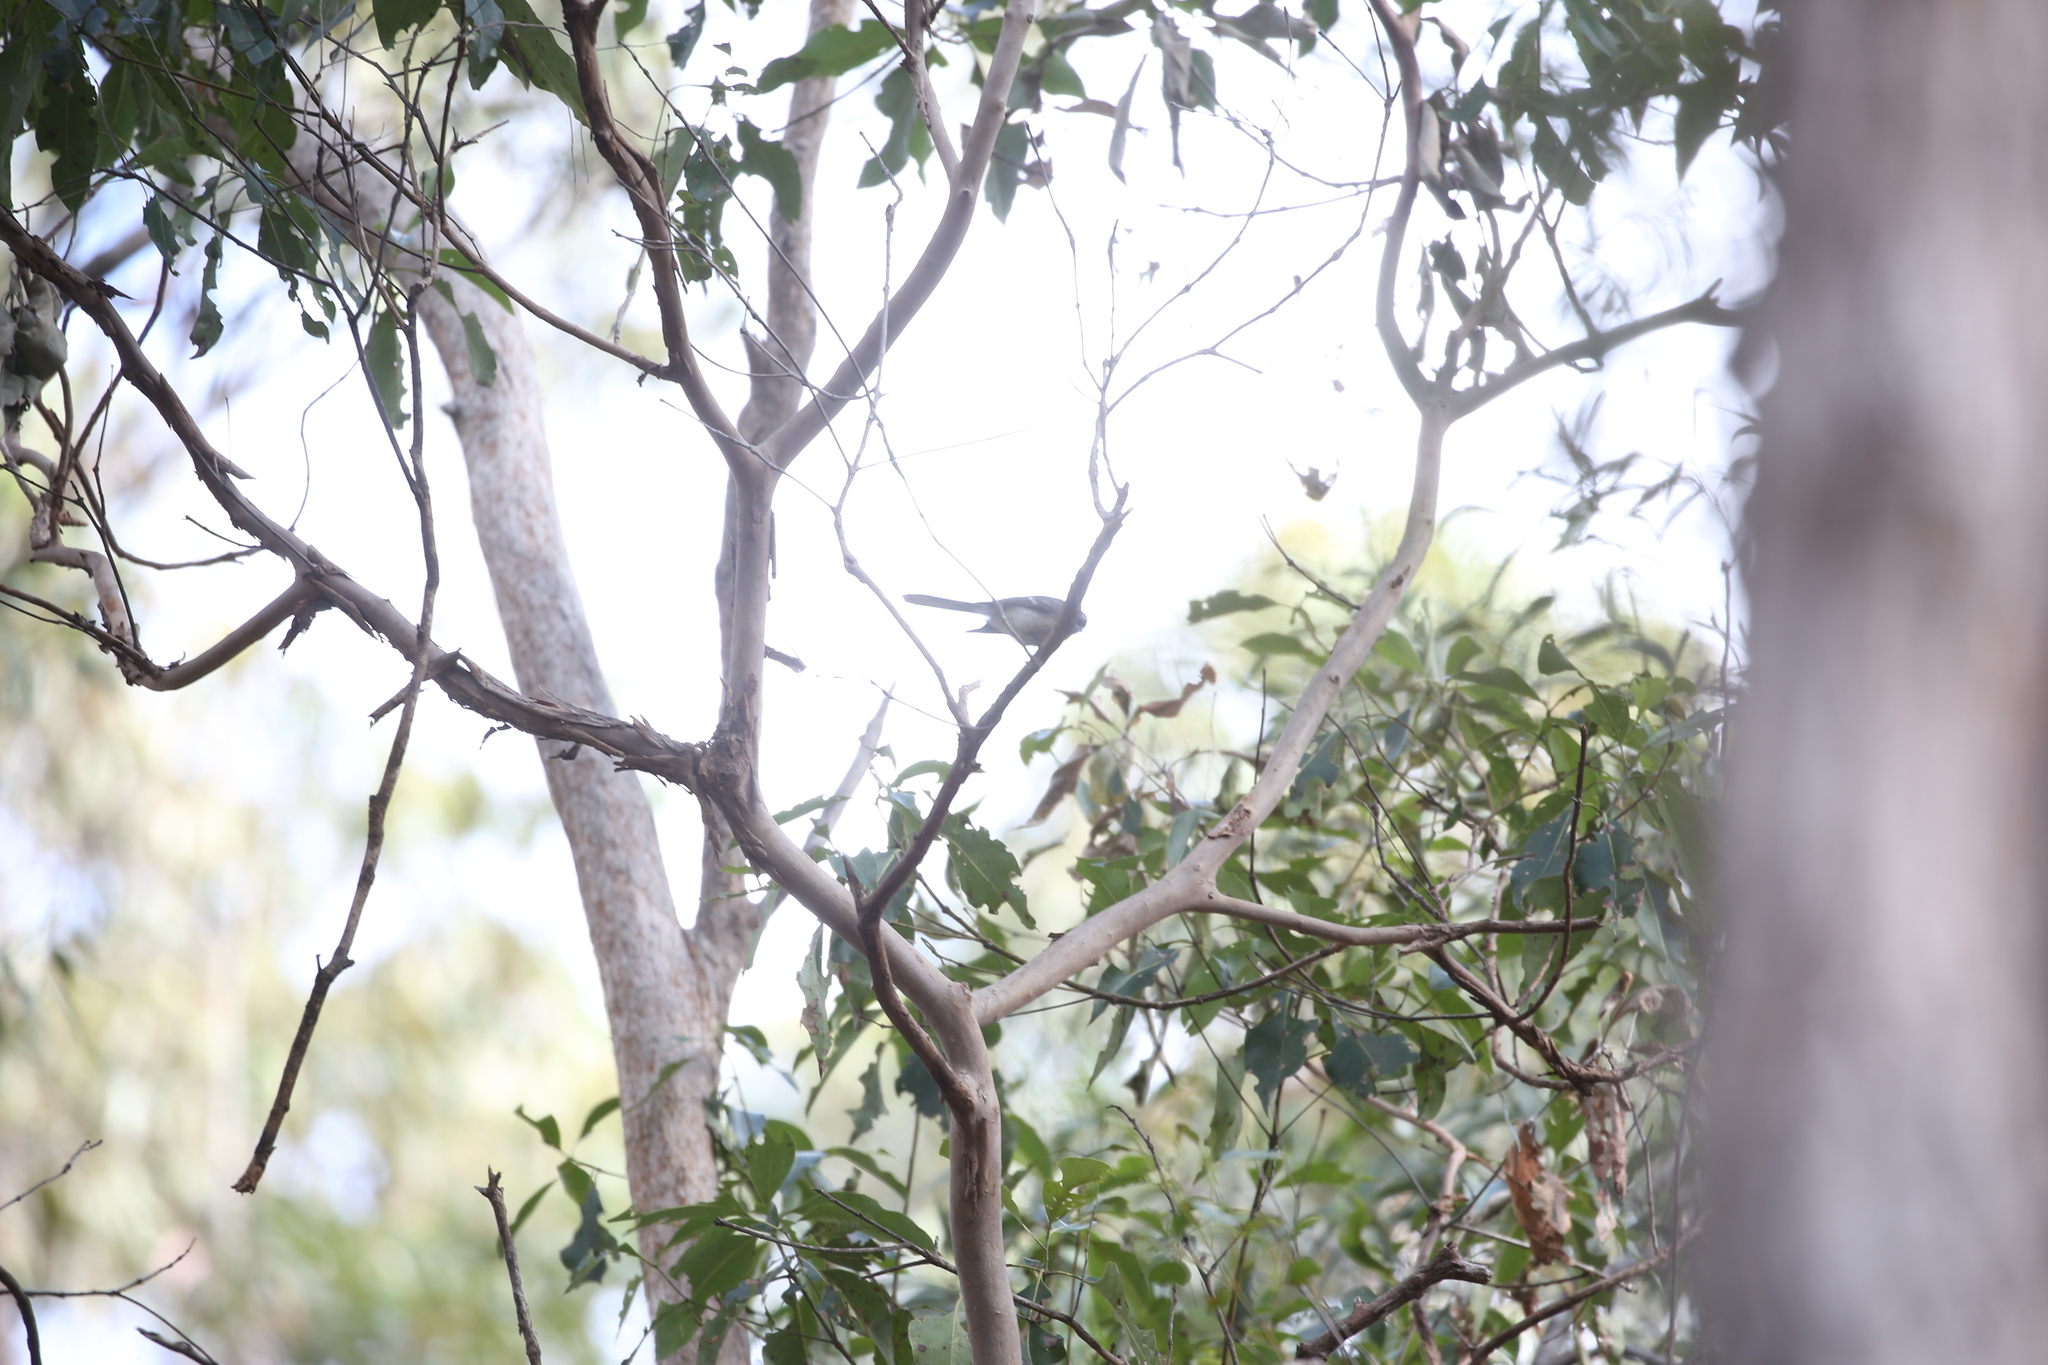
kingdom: Animalia
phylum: Chordata
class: Aves
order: Passeriformes
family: Rhipiduridae
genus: Rhipidura
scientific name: Rhipidura albiscapa
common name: Grey fantail
